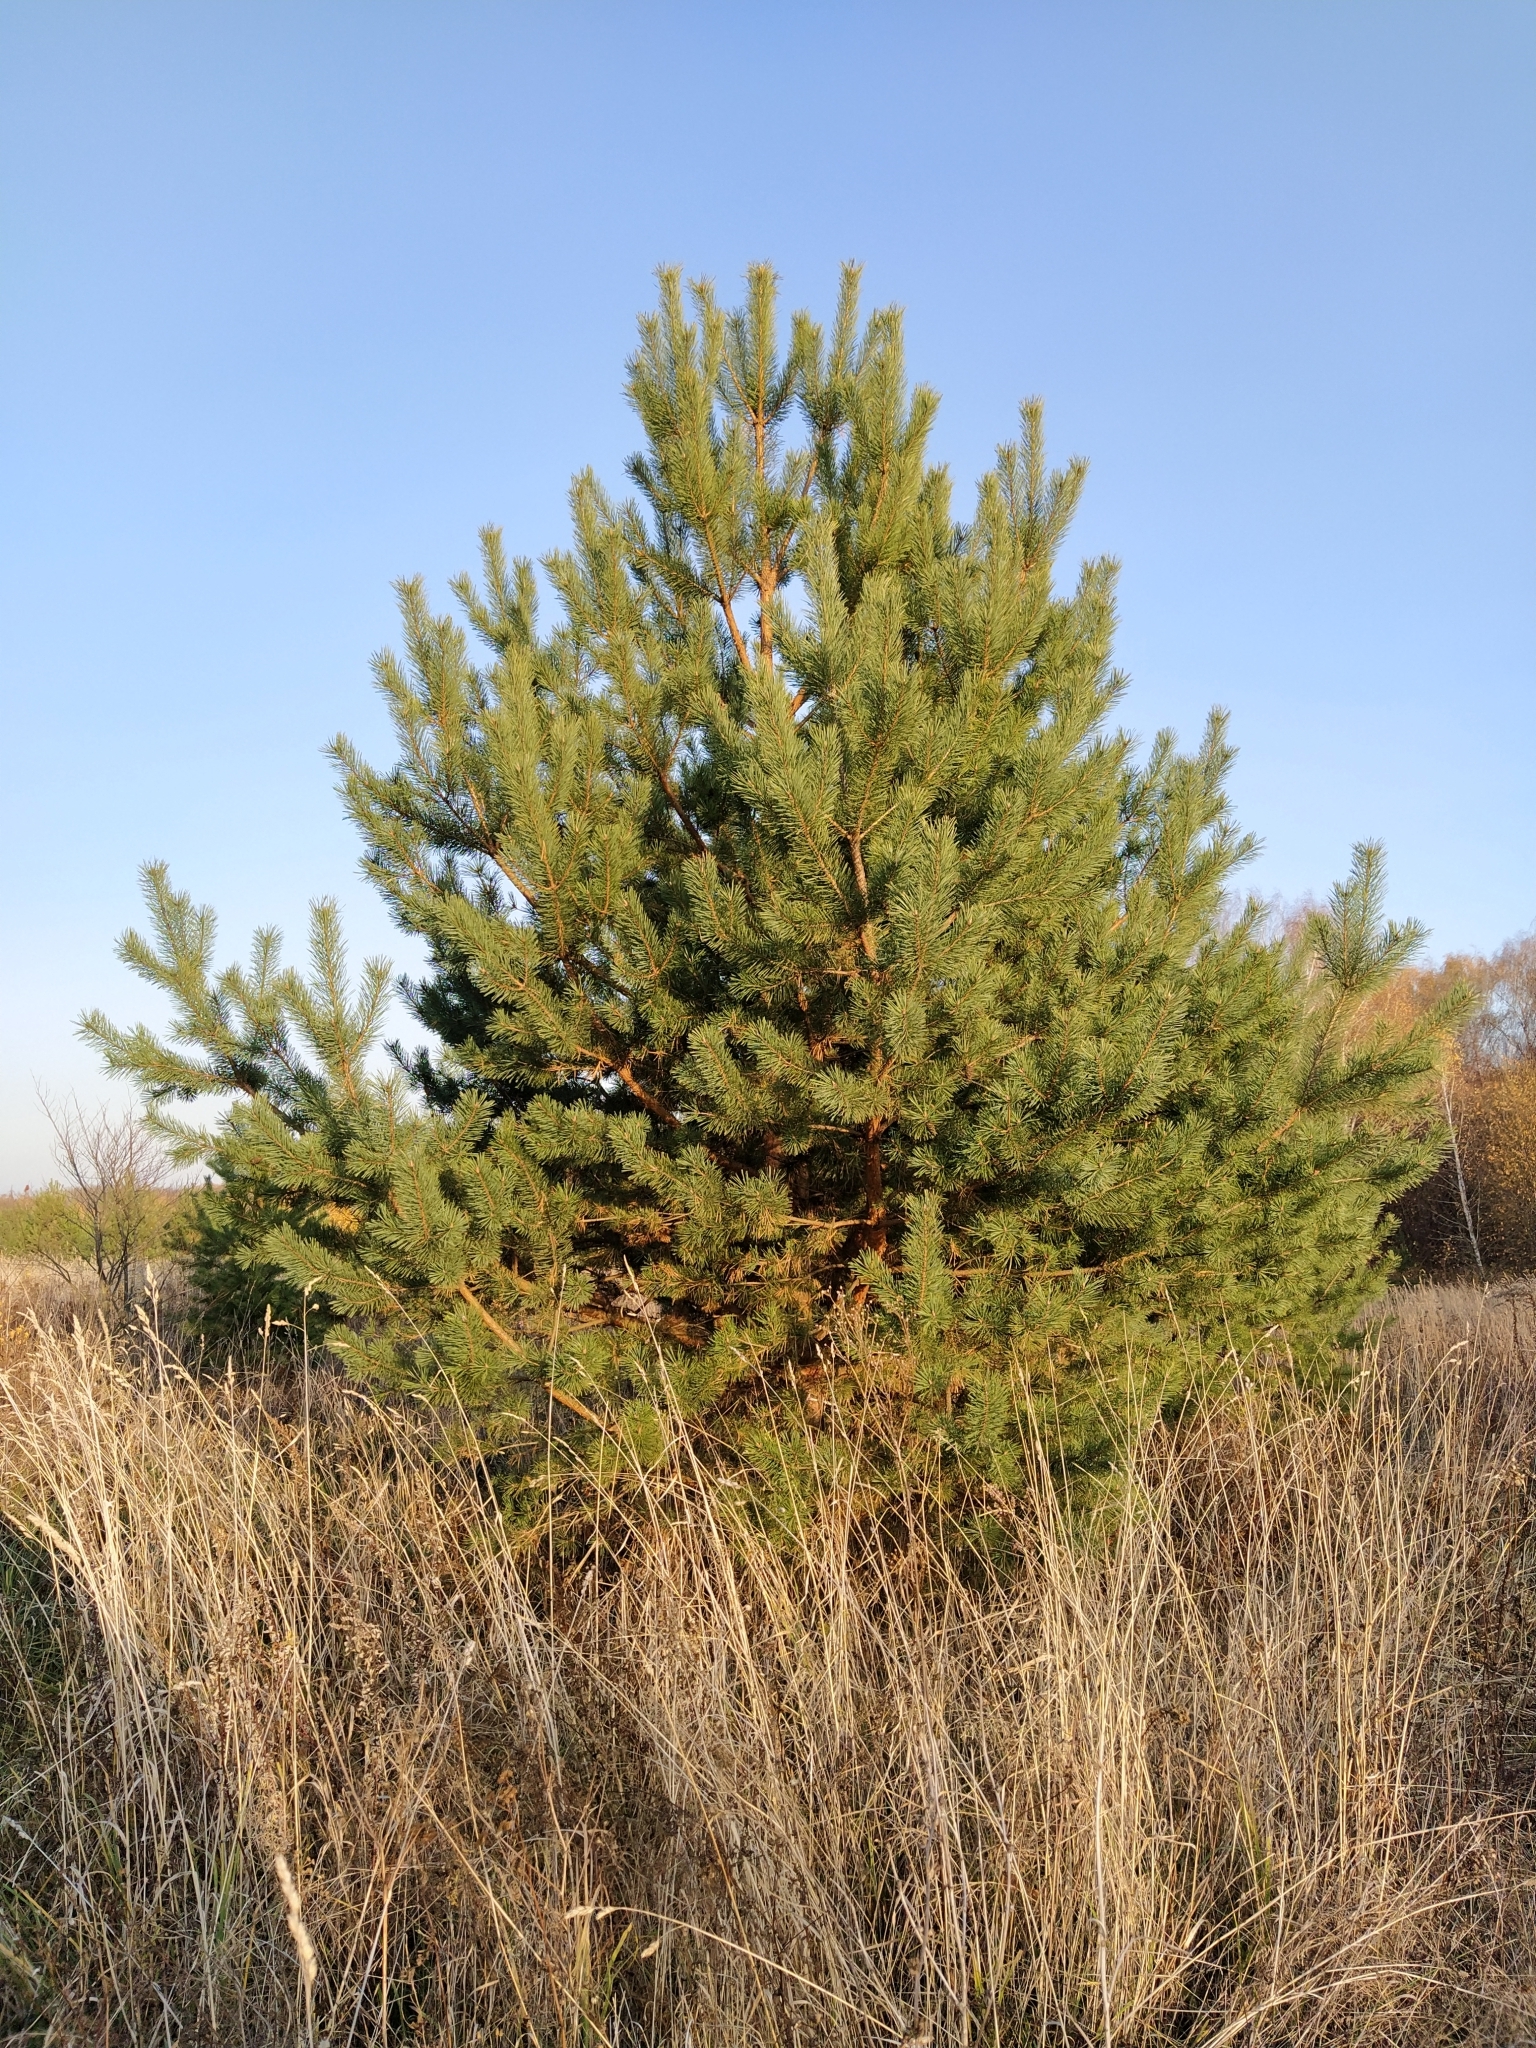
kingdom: Plantae
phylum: Tracheophyta
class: Pinopsida
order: Pinales
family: Pinaceae
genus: Pinus
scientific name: Pinus sylvestris
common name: Scots pine
